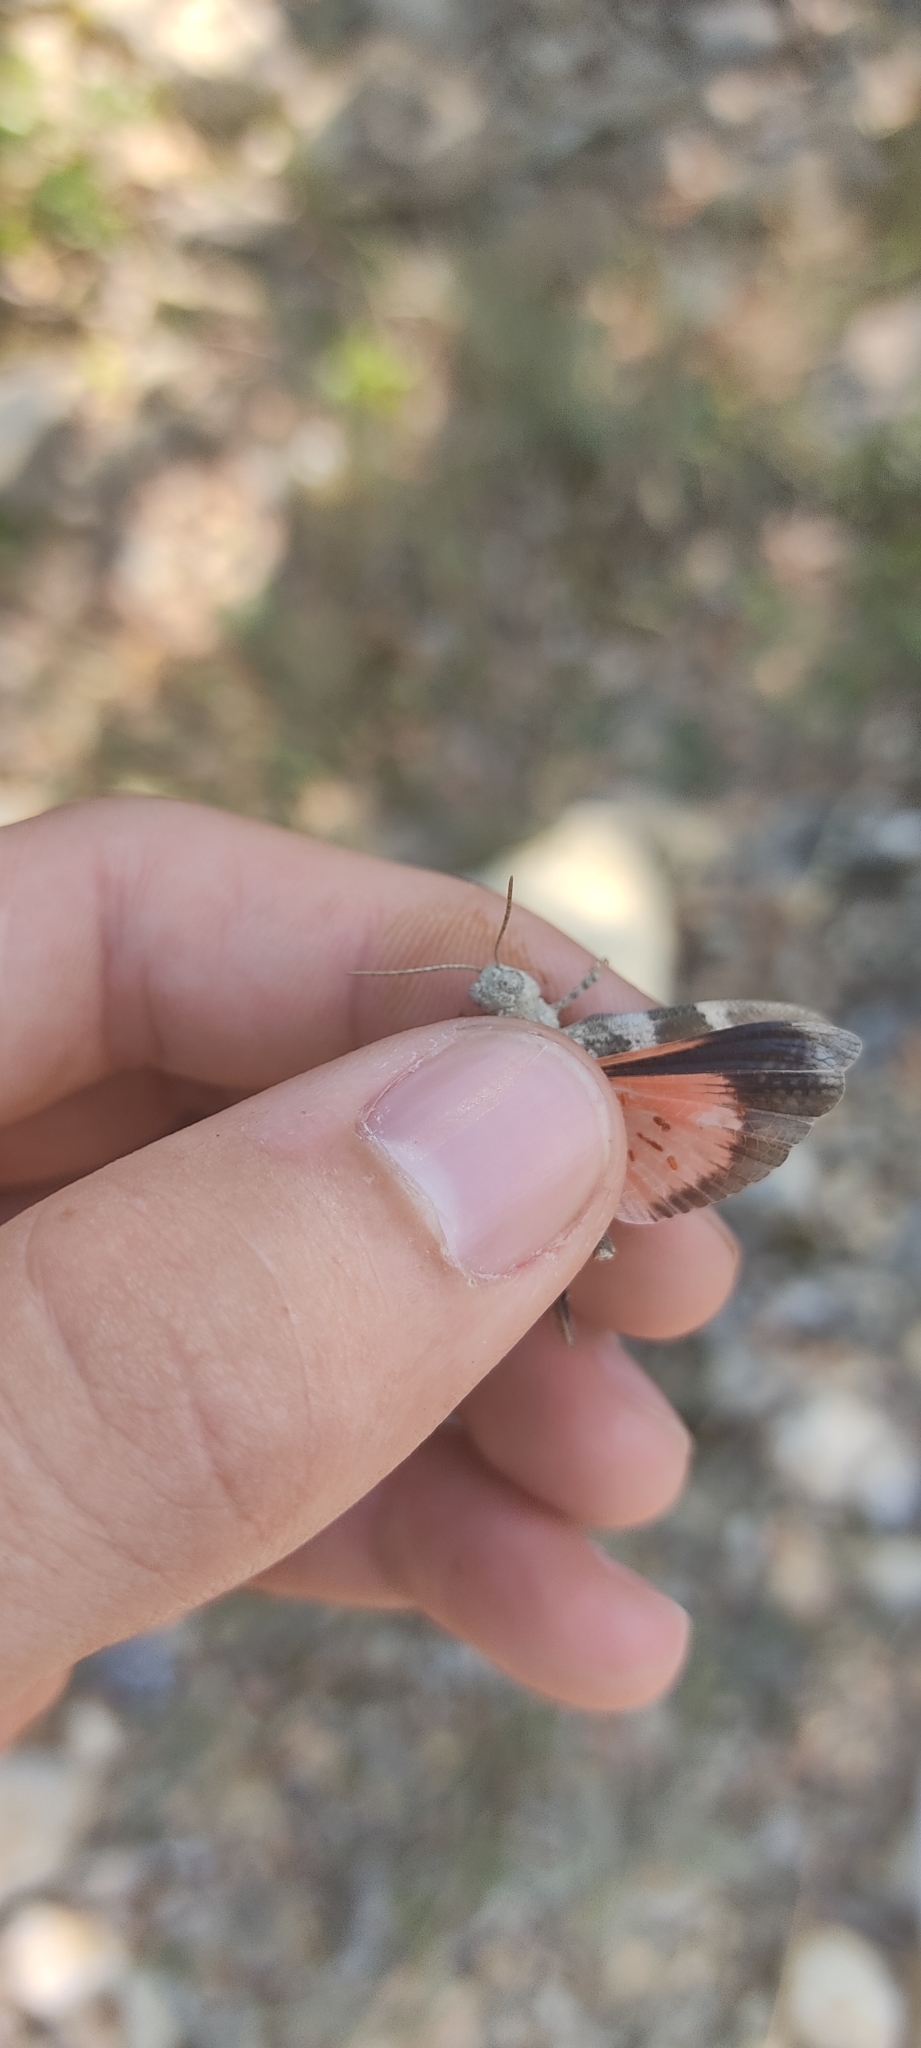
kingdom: Animalia
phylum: Arthropoda
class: Insecta
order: Orthoptera
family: Acrididae
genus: Oedipoda
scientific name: Oedipoda germanica
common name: Red band-winged grasshopper
